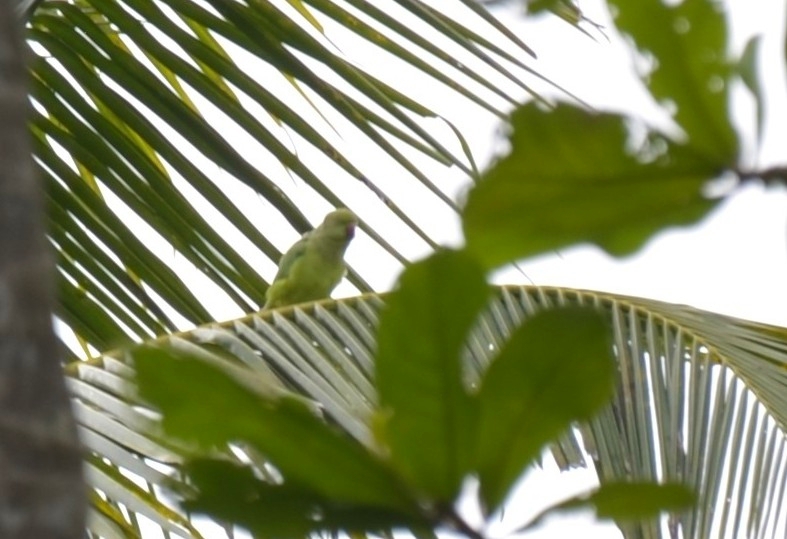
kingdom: Animalia
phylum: Chordata
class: Aves
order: Psittaciformes
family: Psittacidae
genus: Psittacula
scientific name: Psittacula krameri
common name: Rose-ringed parakeet
